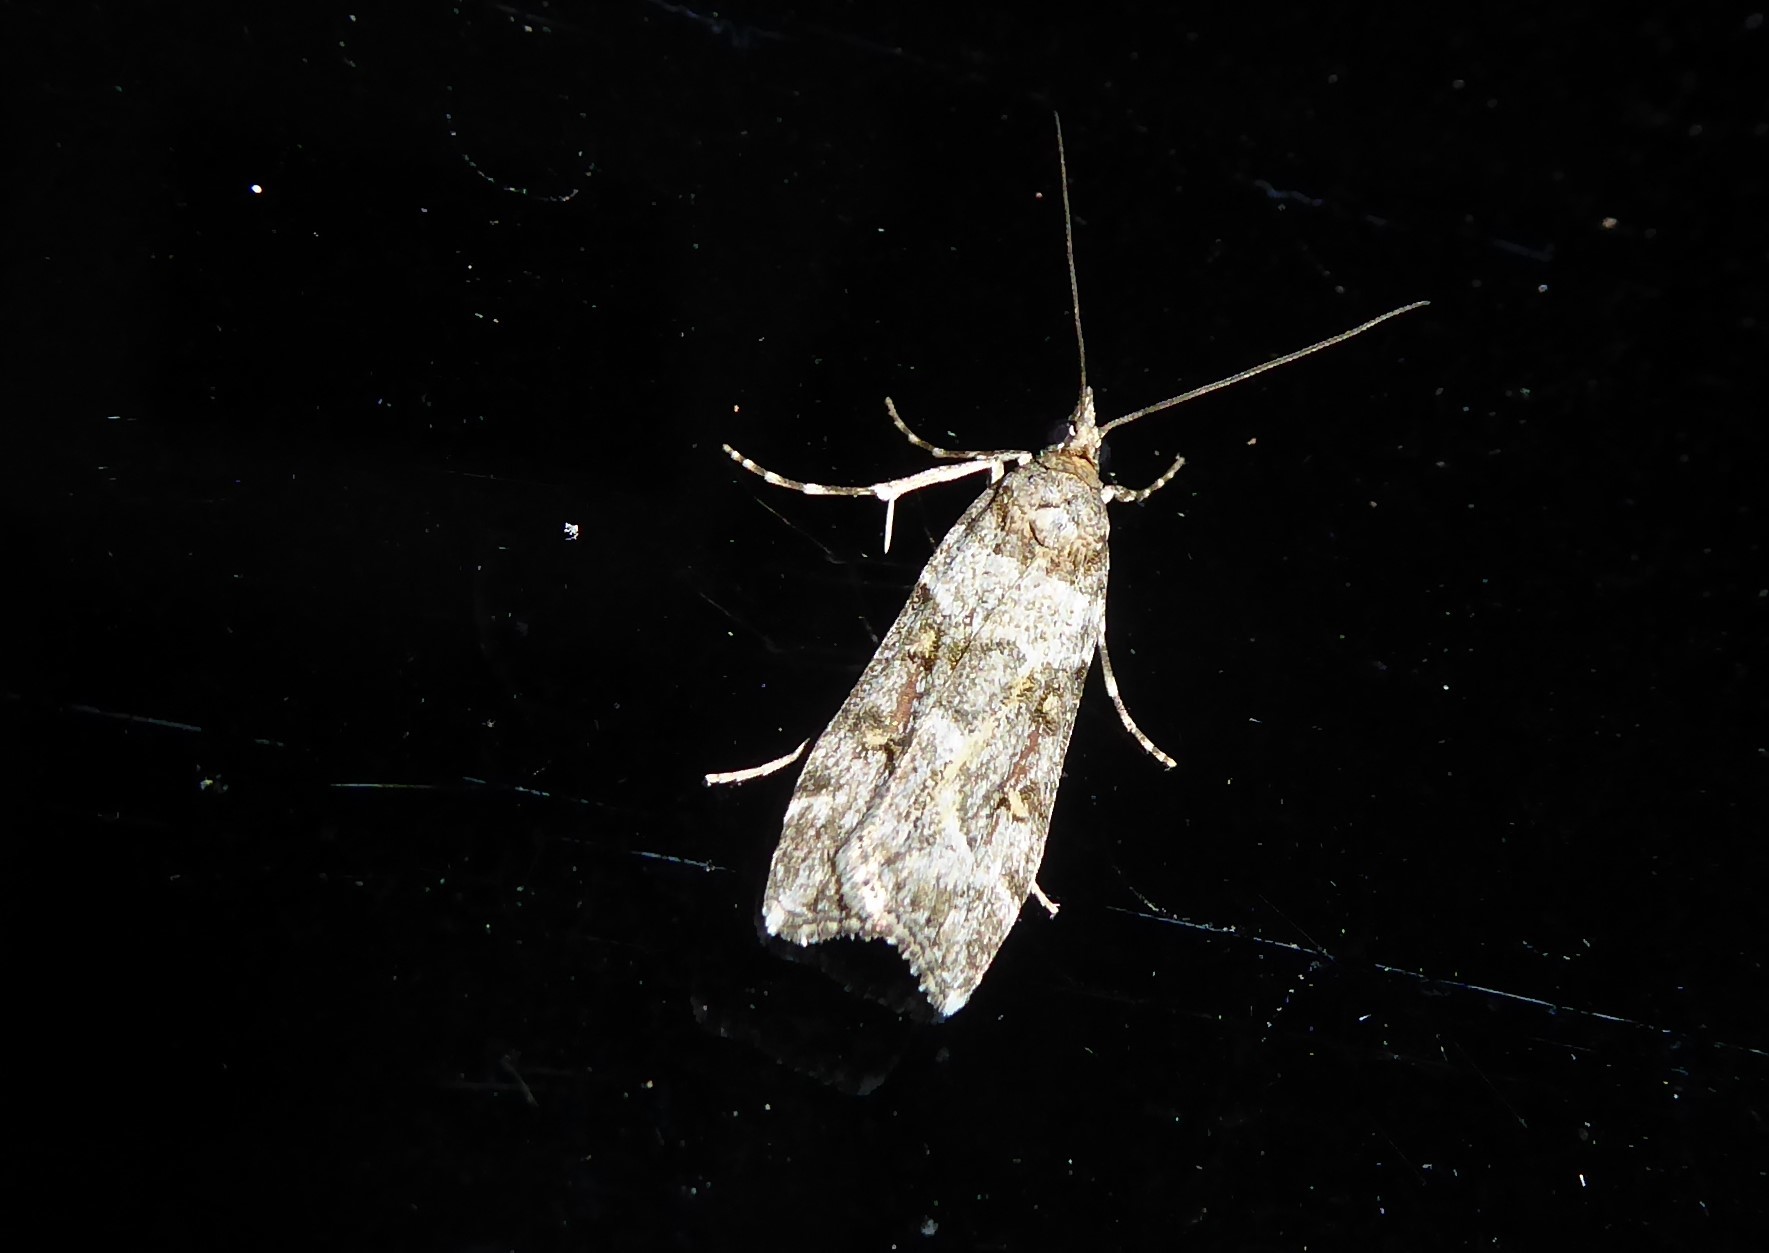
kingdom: Animalia
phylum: Arthropoda
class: Insecta
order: Lepidoptera
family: Crambidae
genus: Eudonia
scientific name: Eudonia diphtheralis
